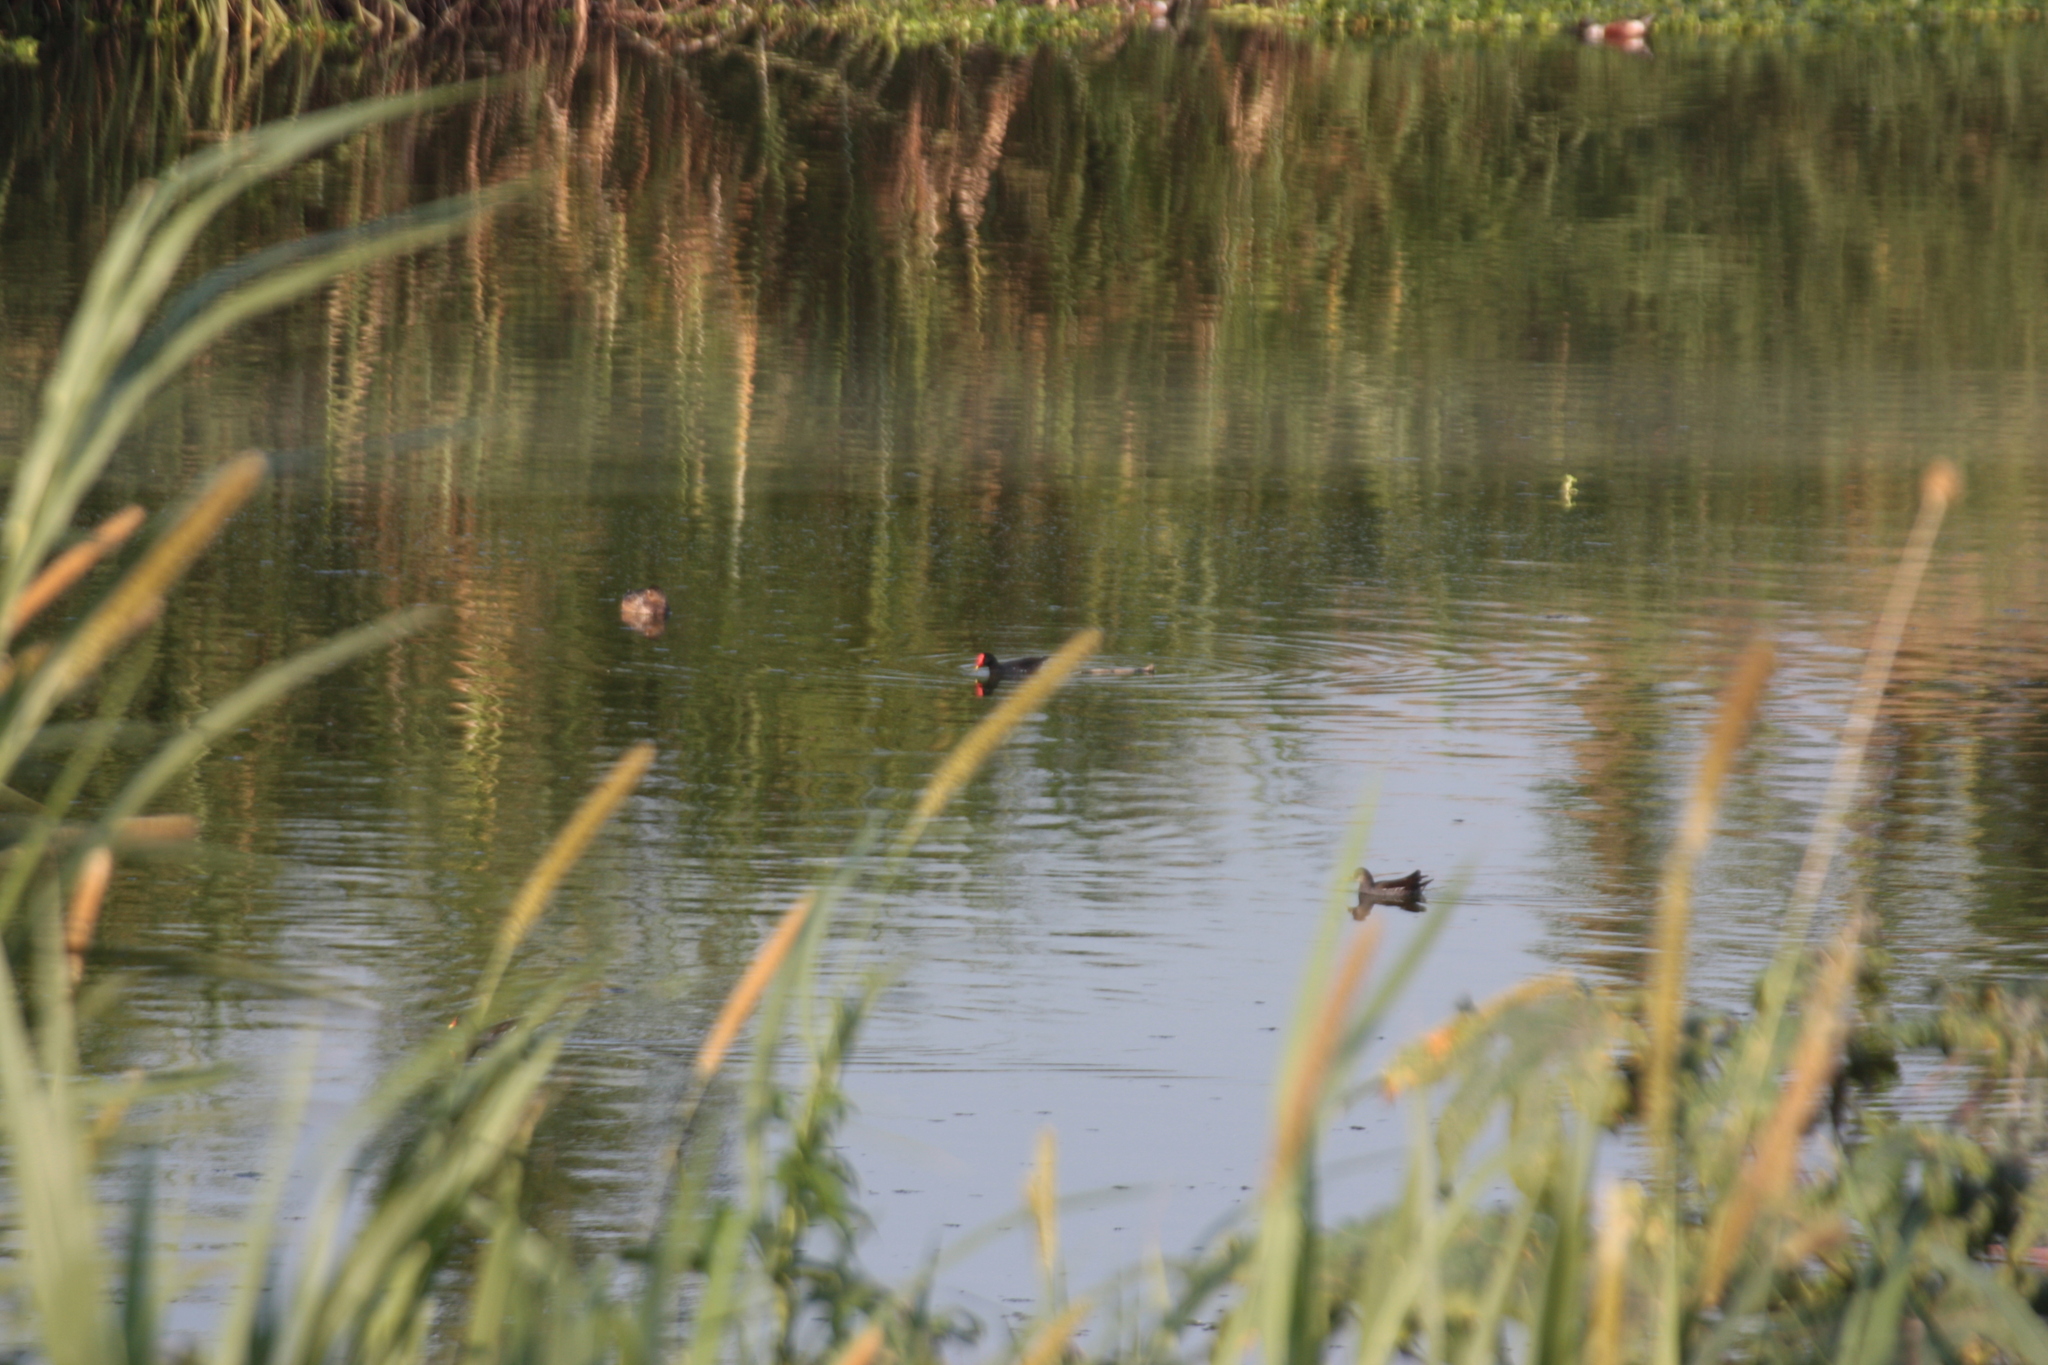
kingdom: Animalia
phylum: Chordata
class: Aves
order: Gruiformes
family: Rallidae
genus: Gallinula
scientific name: Gallinula chloropus
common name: Common moorhen
